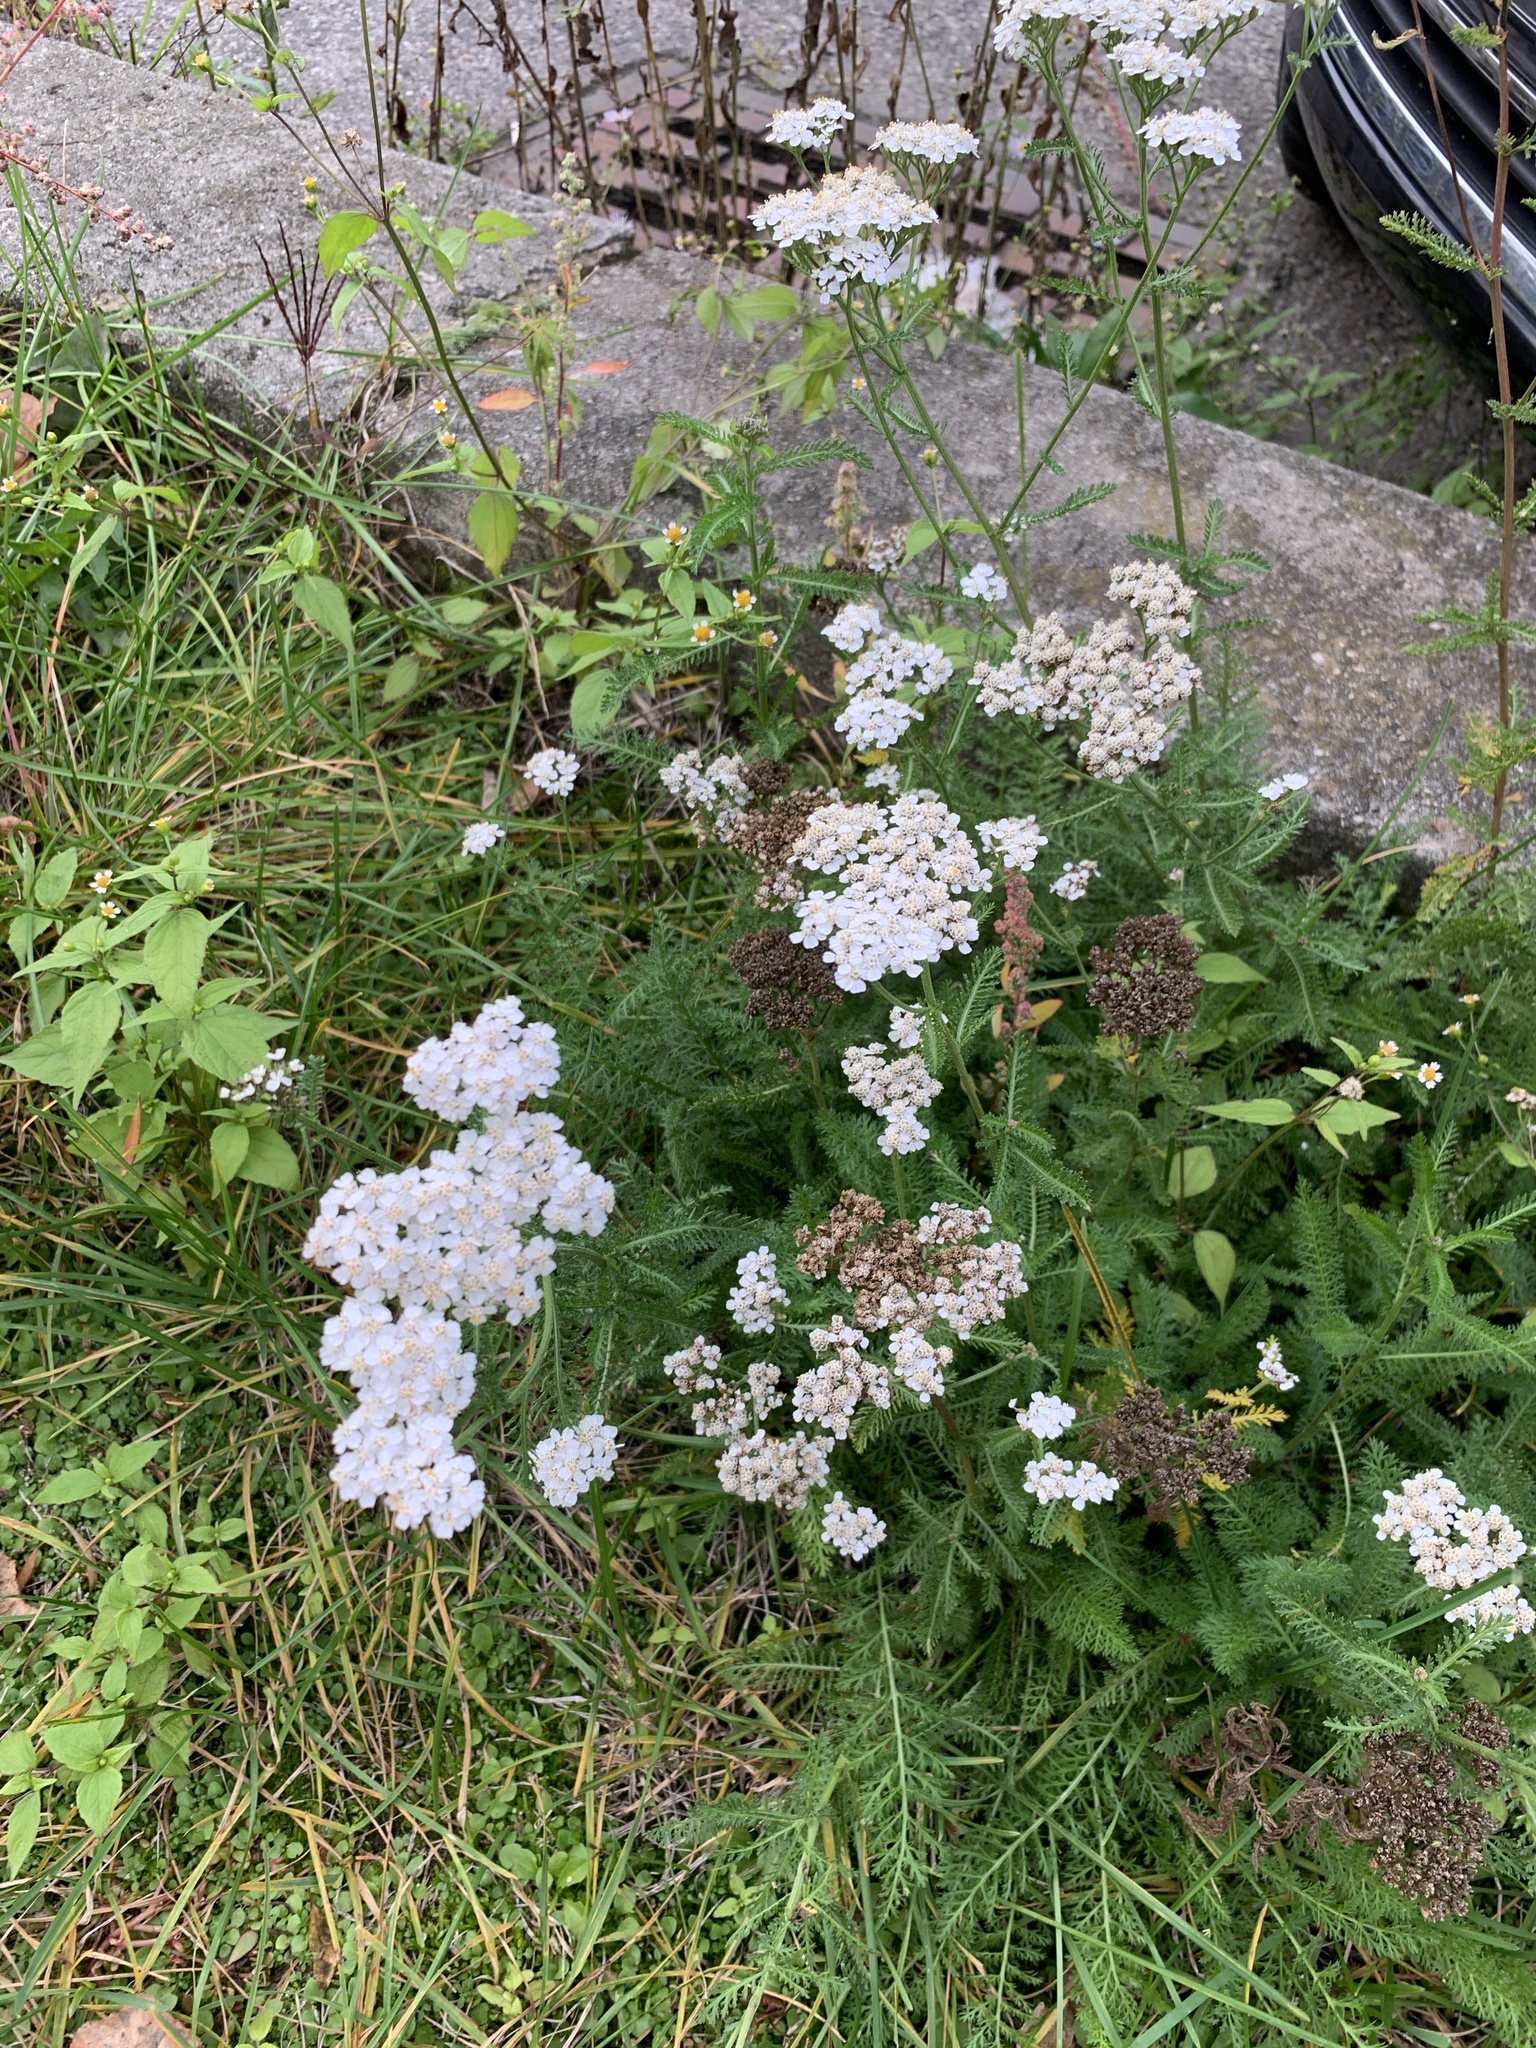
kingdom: Plantae
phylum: Tracheophyta
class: Magnoliopsida
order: Asterales
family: Asteraceae
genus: Achillea
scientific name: Achillea millefolium
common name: Yarrow
